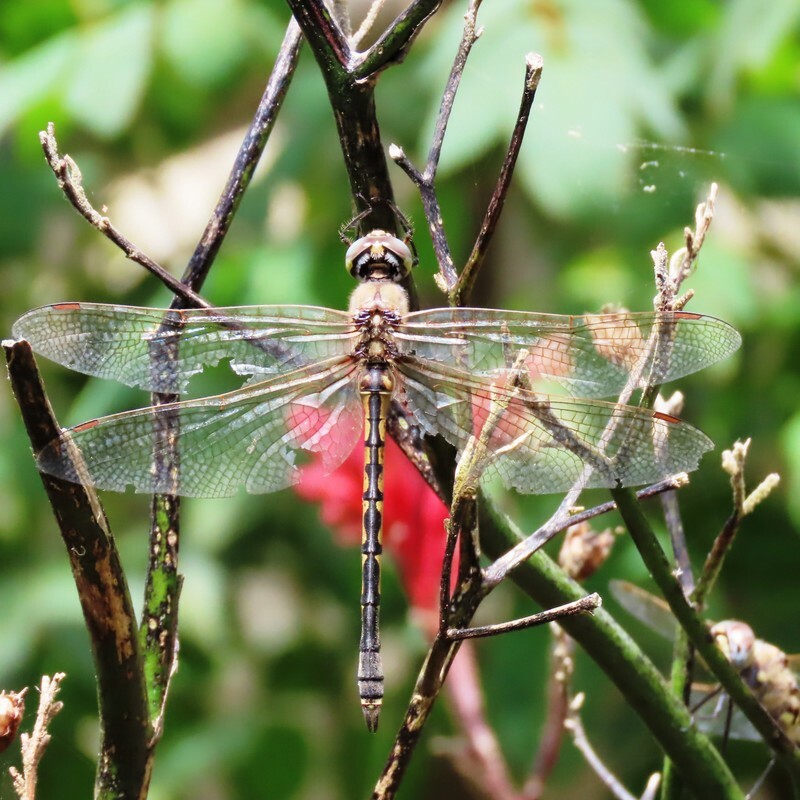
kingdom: Animalia
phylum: Arthropoda
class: Insecta
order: Odonata
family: Corduliidae
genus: Hemicordulia
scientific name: Hemicordulia tau
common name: Tau emerald
